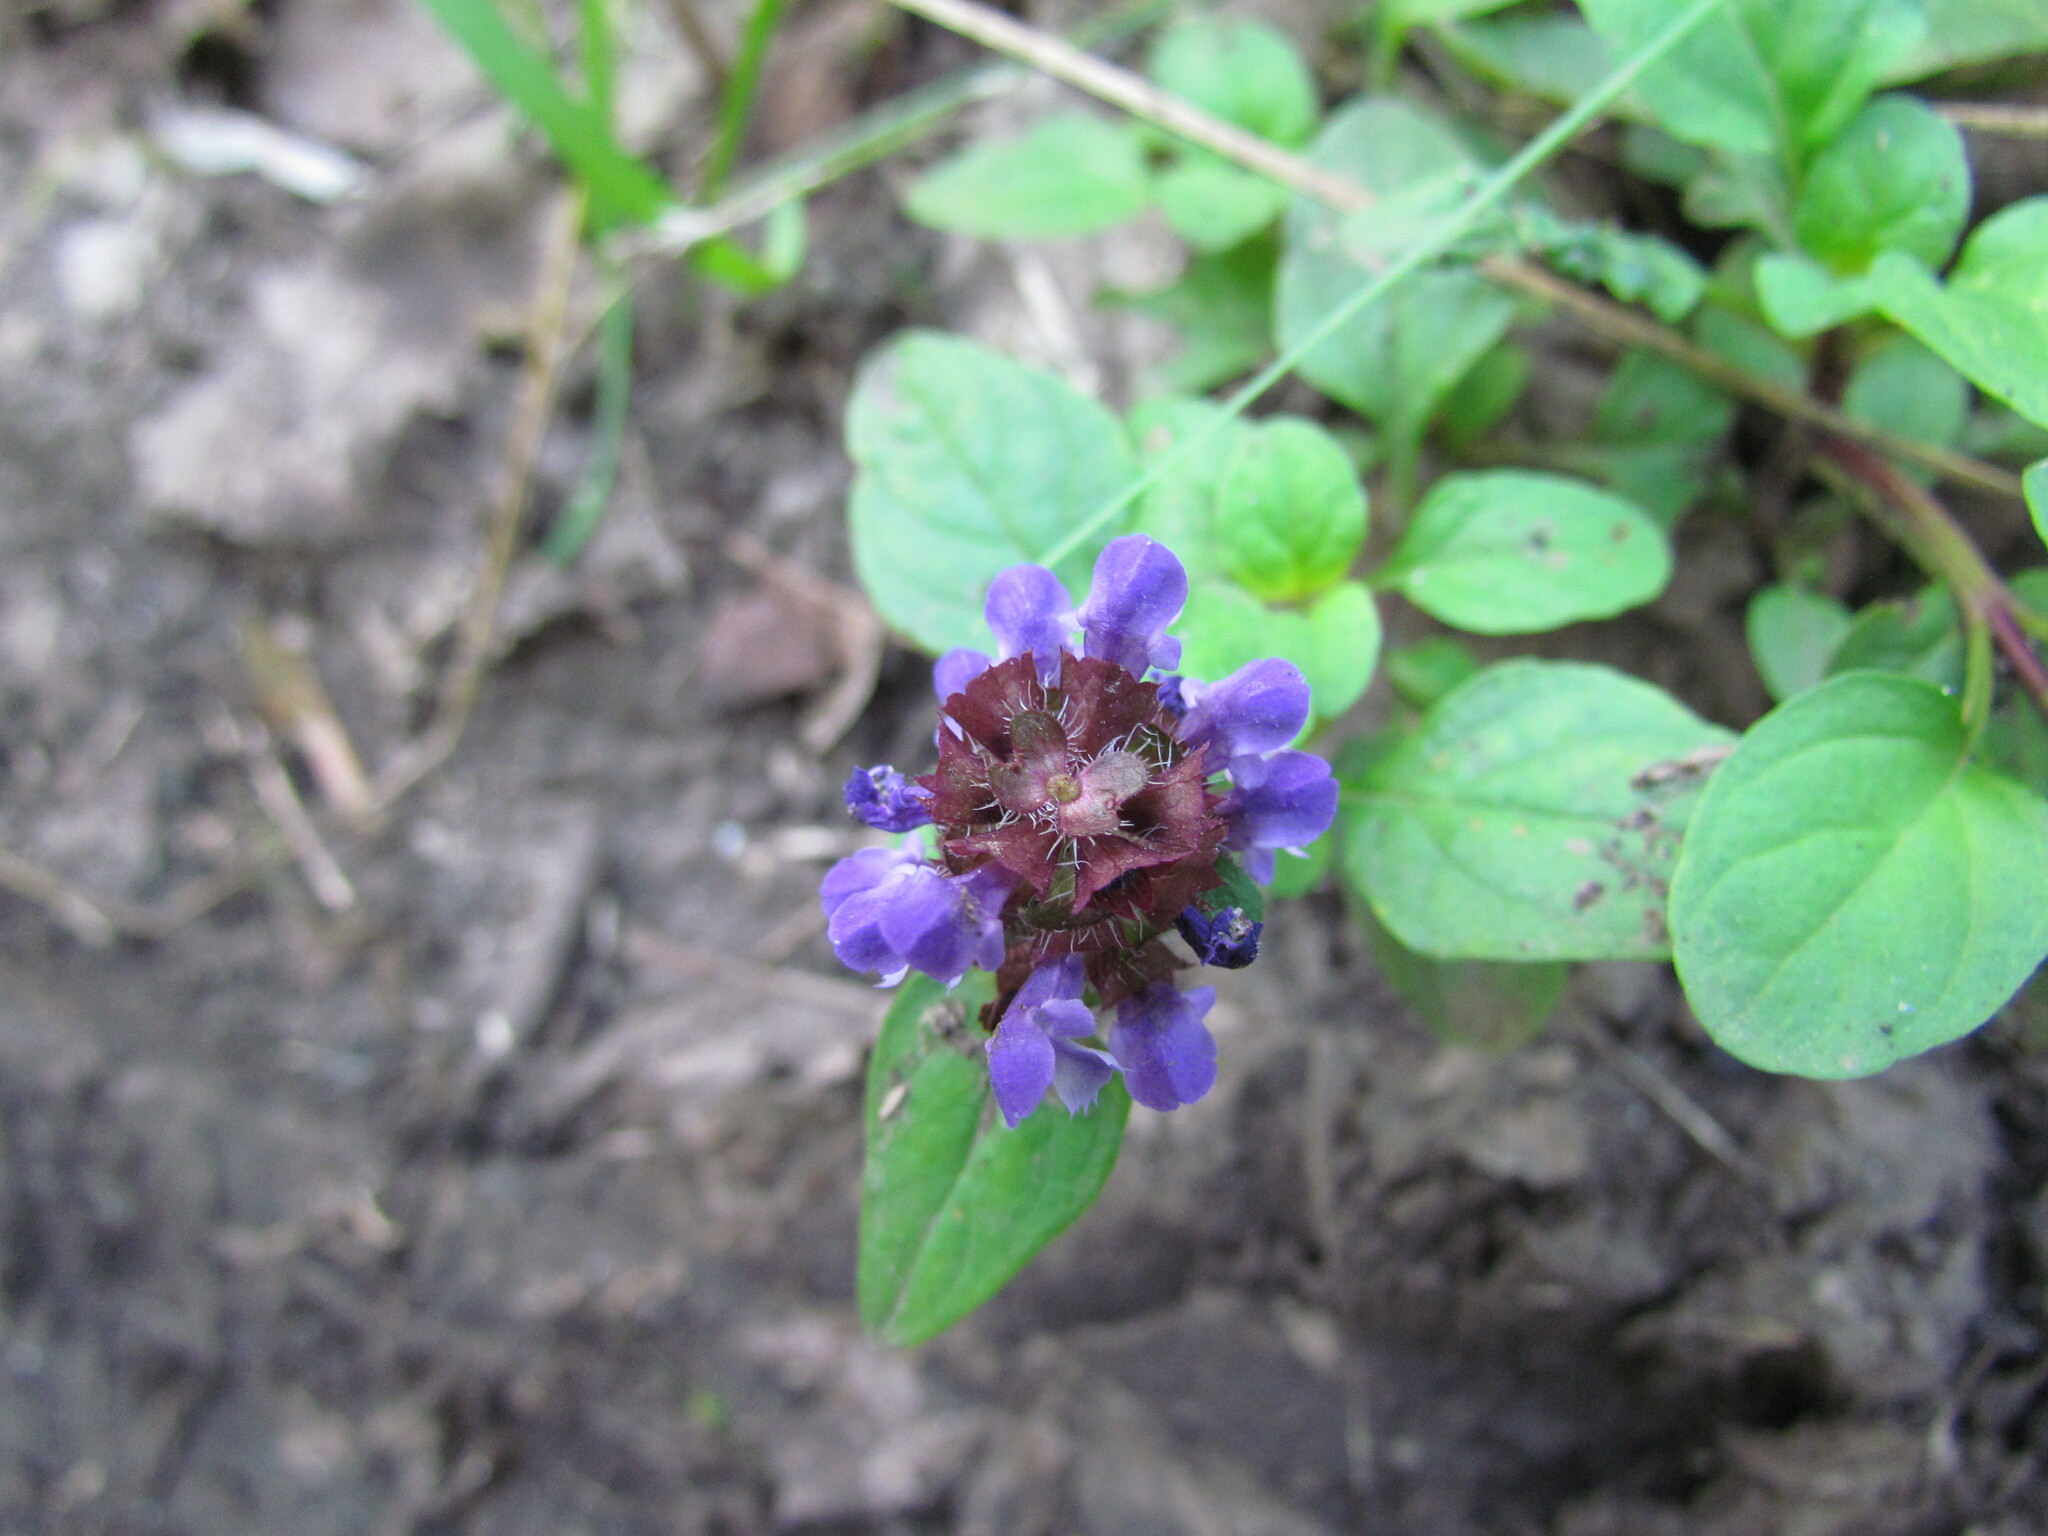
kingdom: Plantae
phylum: Tracheophyta
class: Magnoliopsida
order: Lamiales
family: Lamiaceae
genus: Prunella
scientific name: Prunella vulgaris
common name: Heal-all
